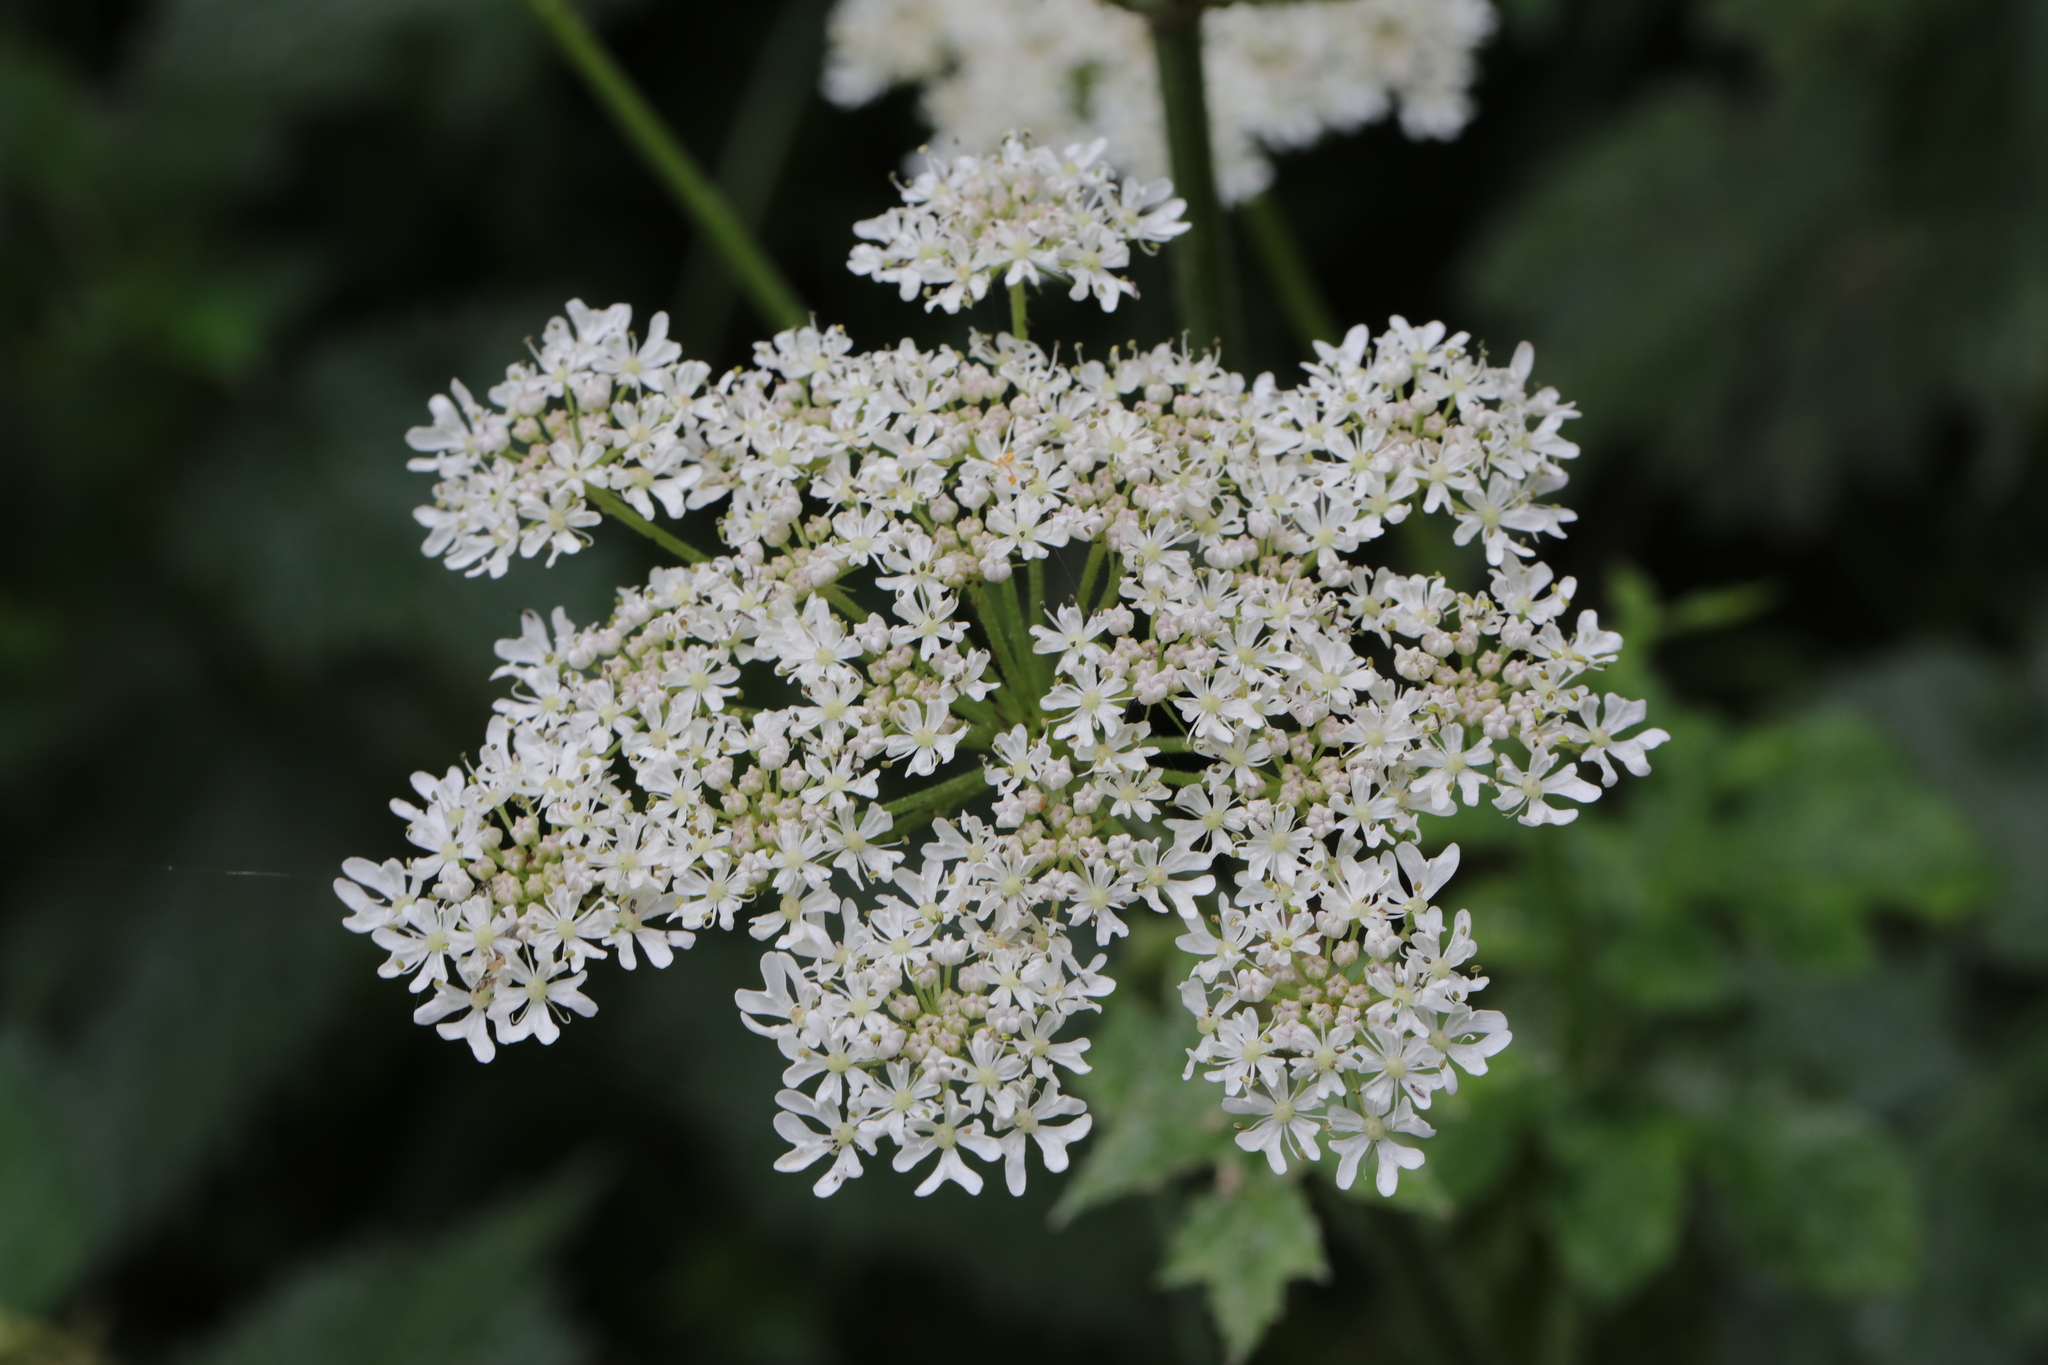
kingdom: Plantae
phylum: Tracheophyta
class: Magnoliopsida
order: Apiales
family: Apiaceae
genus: Heracleum
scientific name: Heracleum sphondylium
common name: Hogweed
